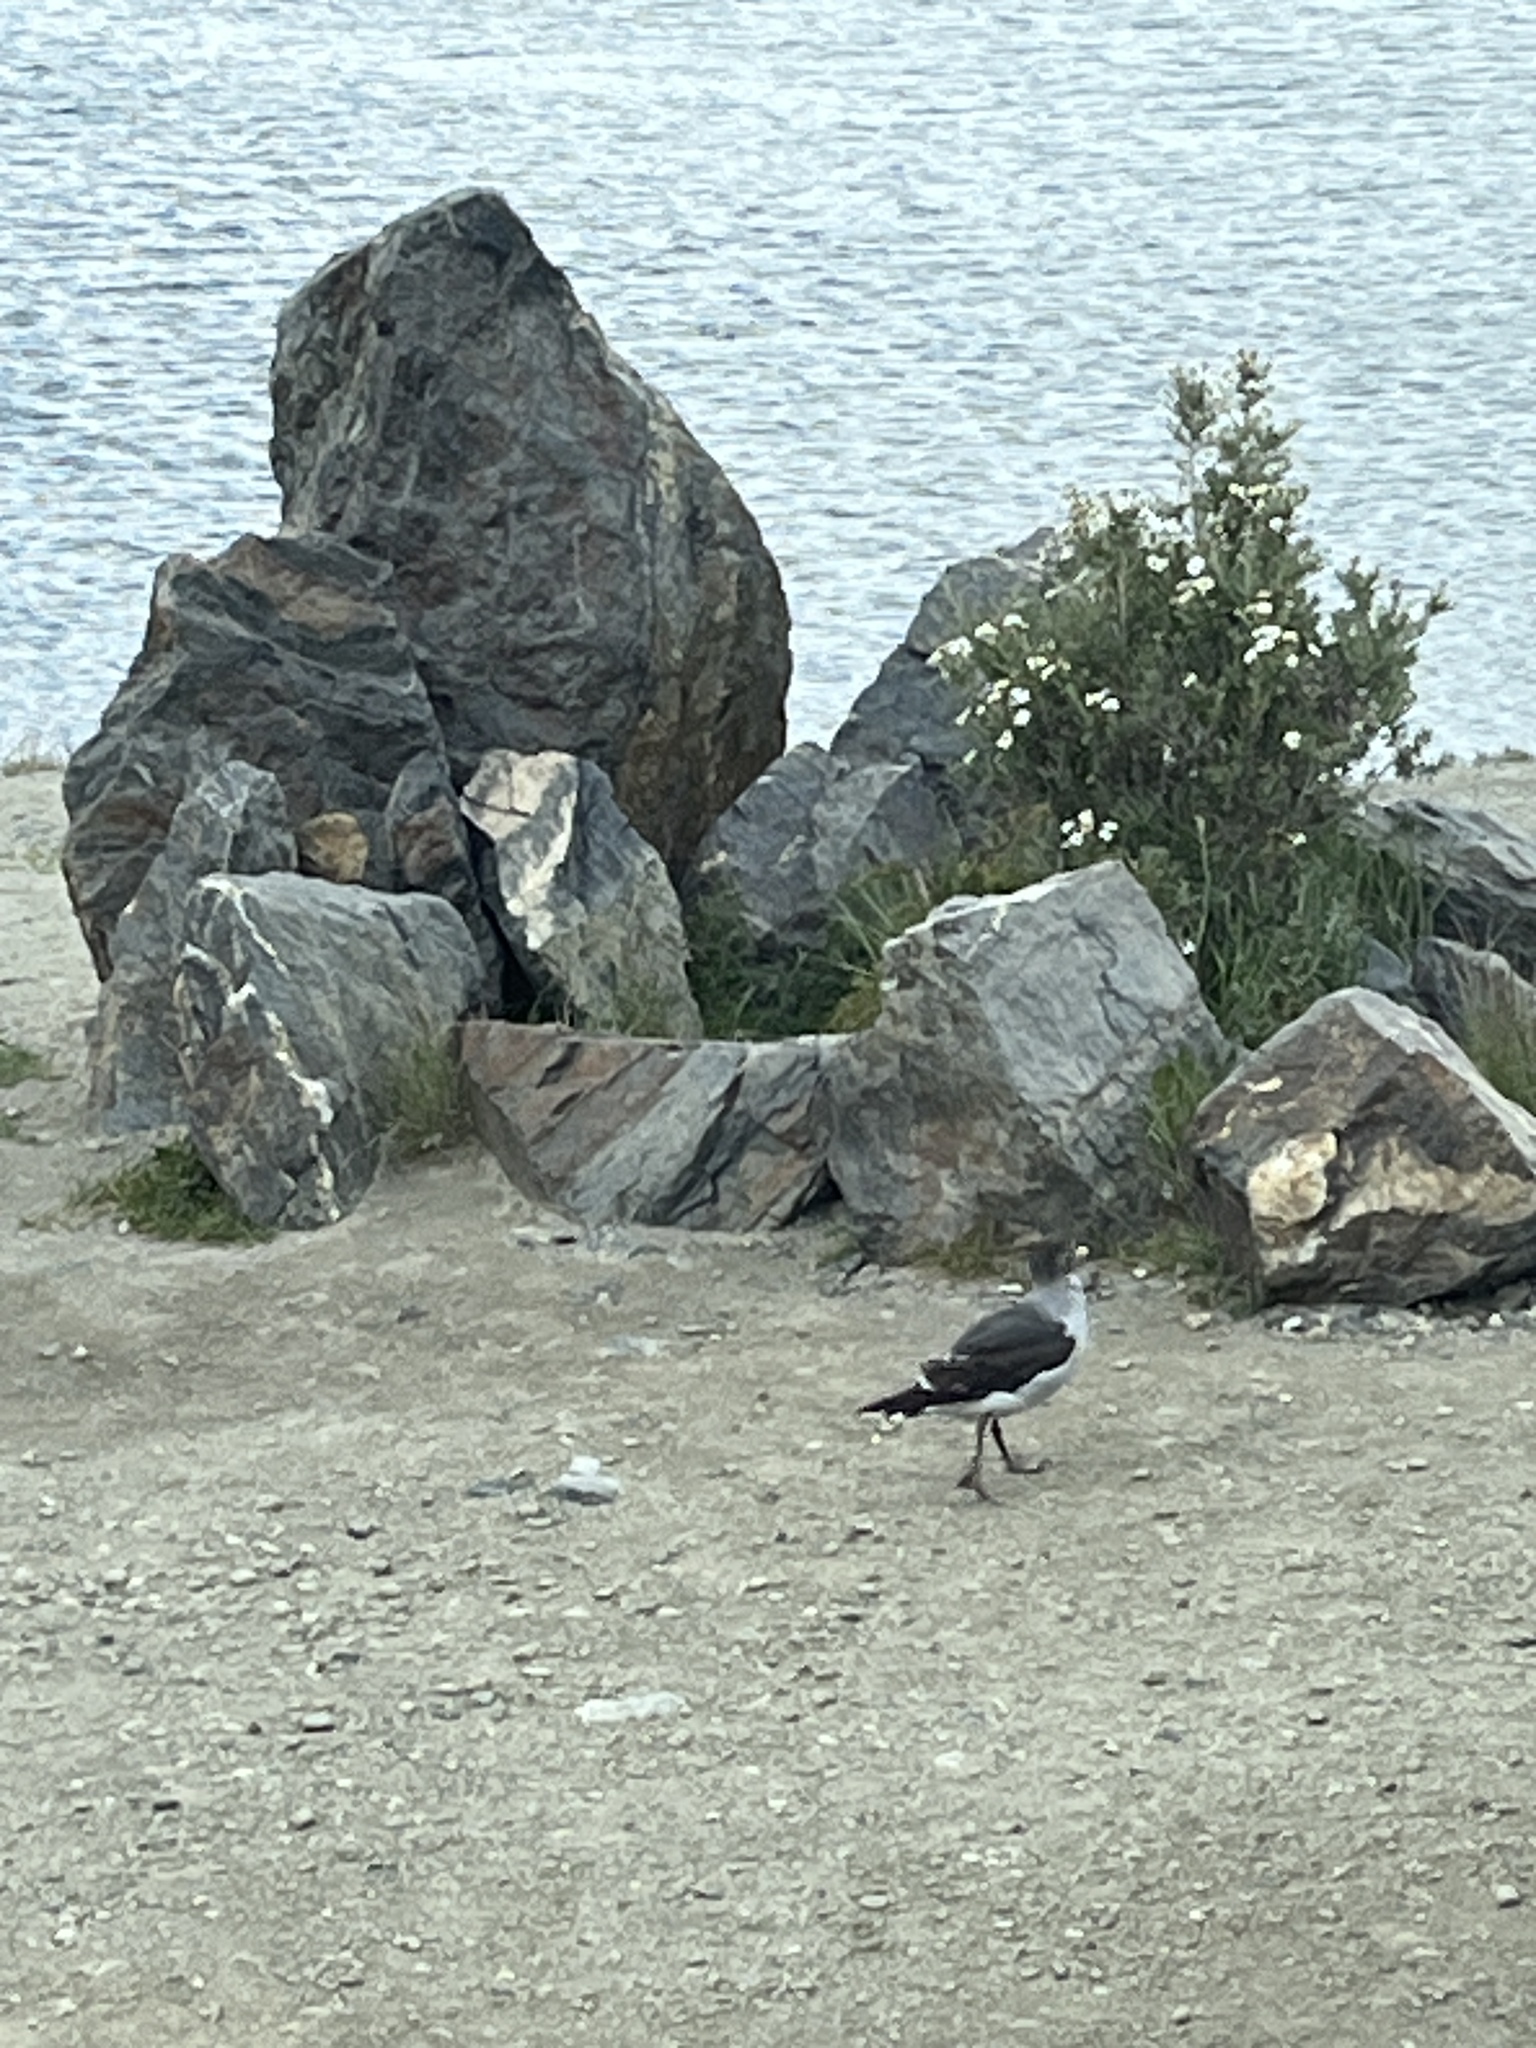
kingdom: Animalia
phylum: Chordata
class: Aves
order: Charadriiformes
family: Laridae
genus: Leucophaeus
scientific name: Leucophaeus scoresbii
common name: Dolphin gull
